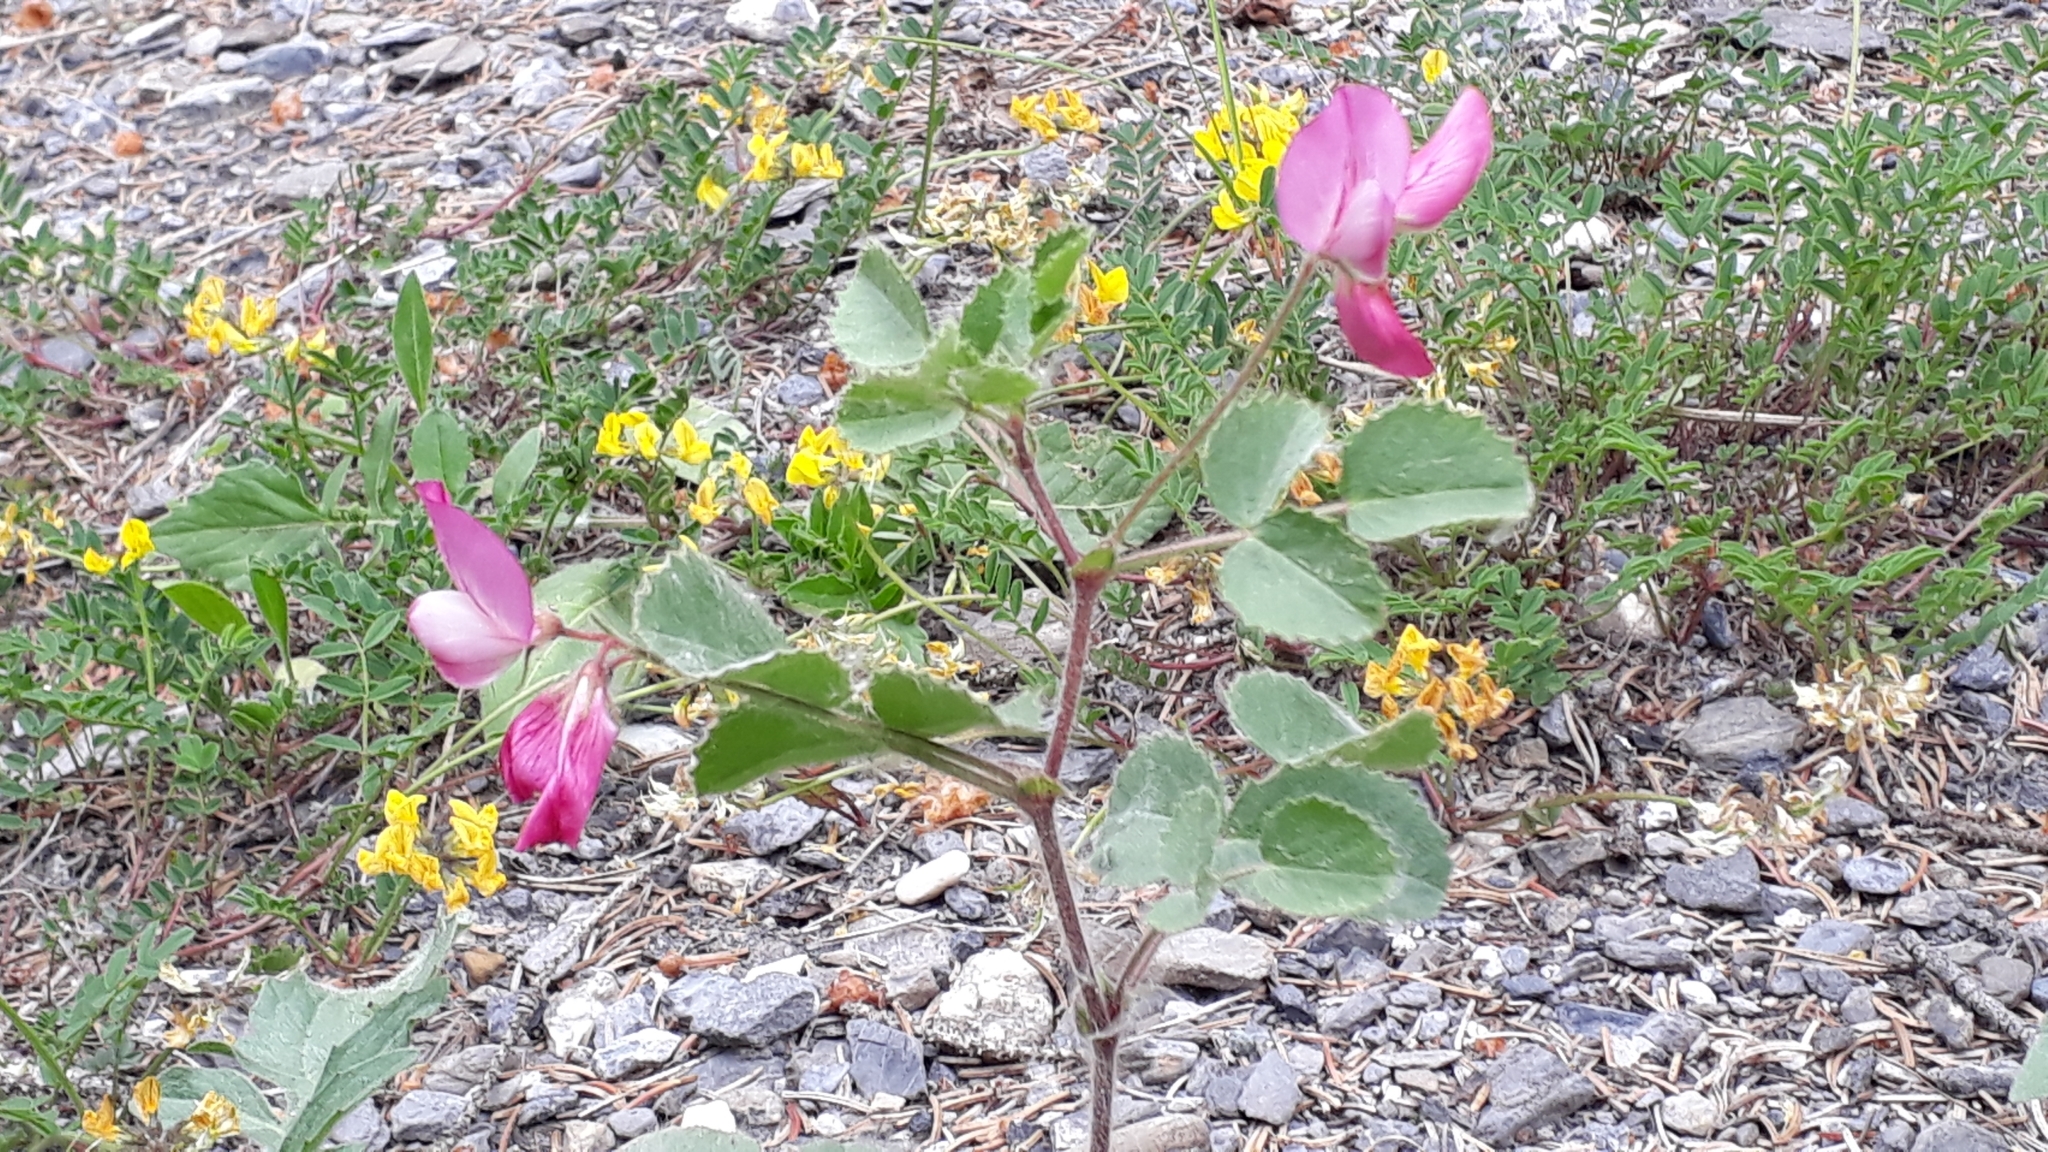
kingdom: Plantae
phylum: Tracheophyta
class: Magnoliopsida
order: Fabales
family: Fabaceae
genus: Ononis
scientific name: Ononis rotundifolia
